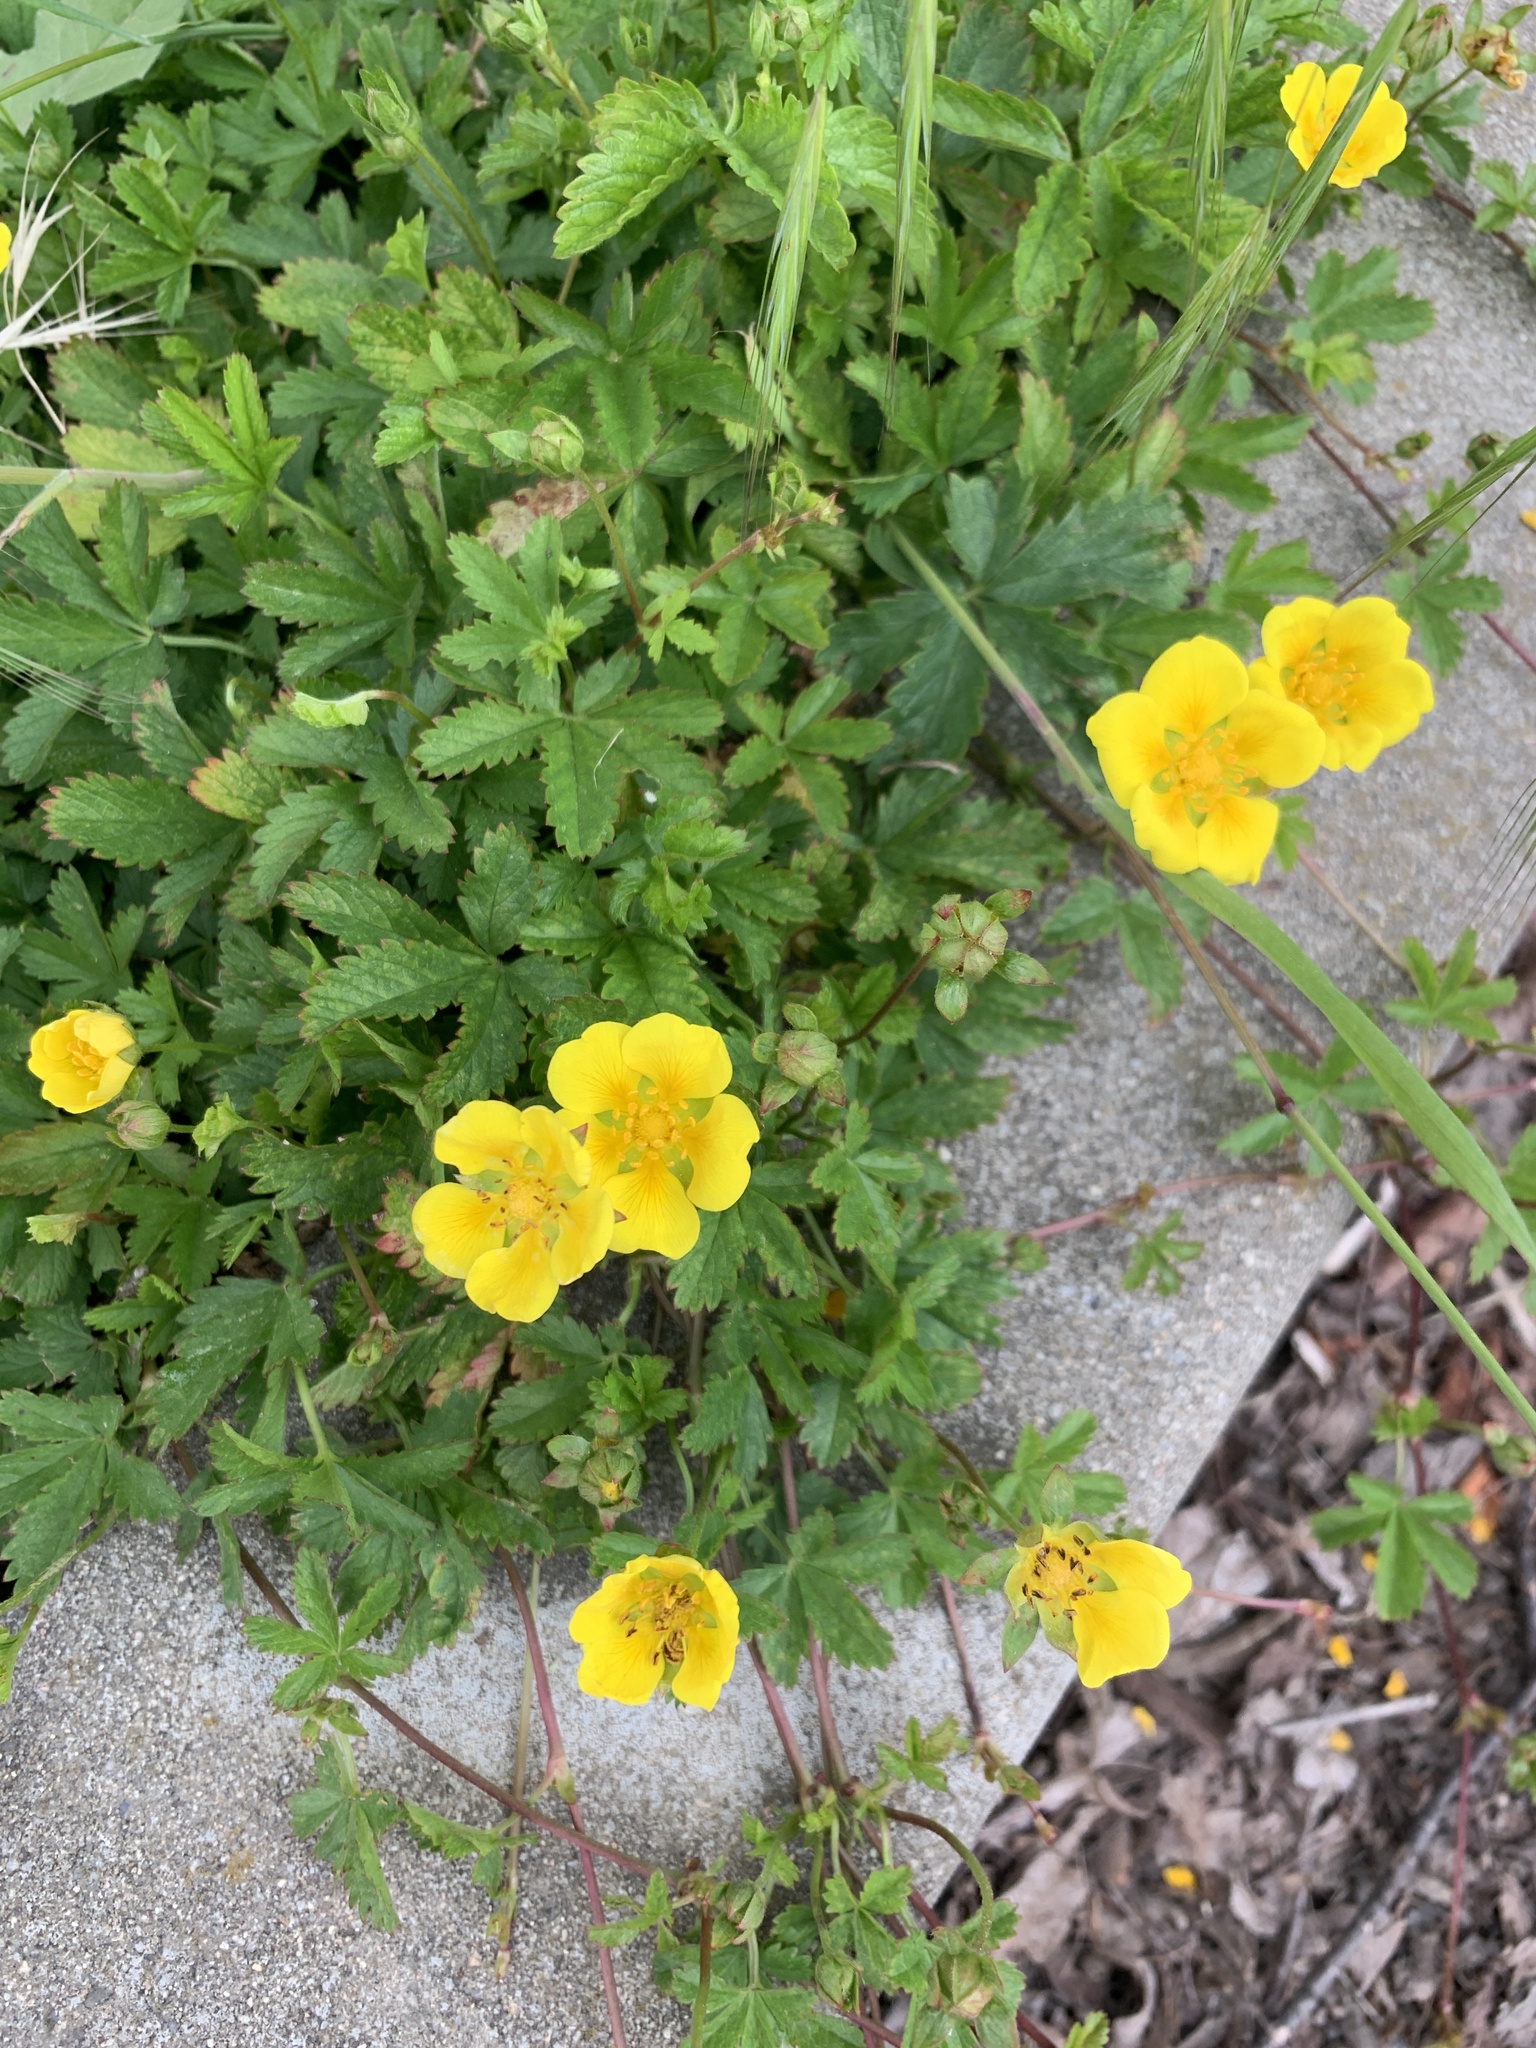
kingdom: Plantae
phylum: Tracheophyta
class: Magnoliopsida
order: Rosales
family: Rosaceae
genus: Potentilla
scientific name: Potentilla reptans
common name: Creeping cinquefoil
